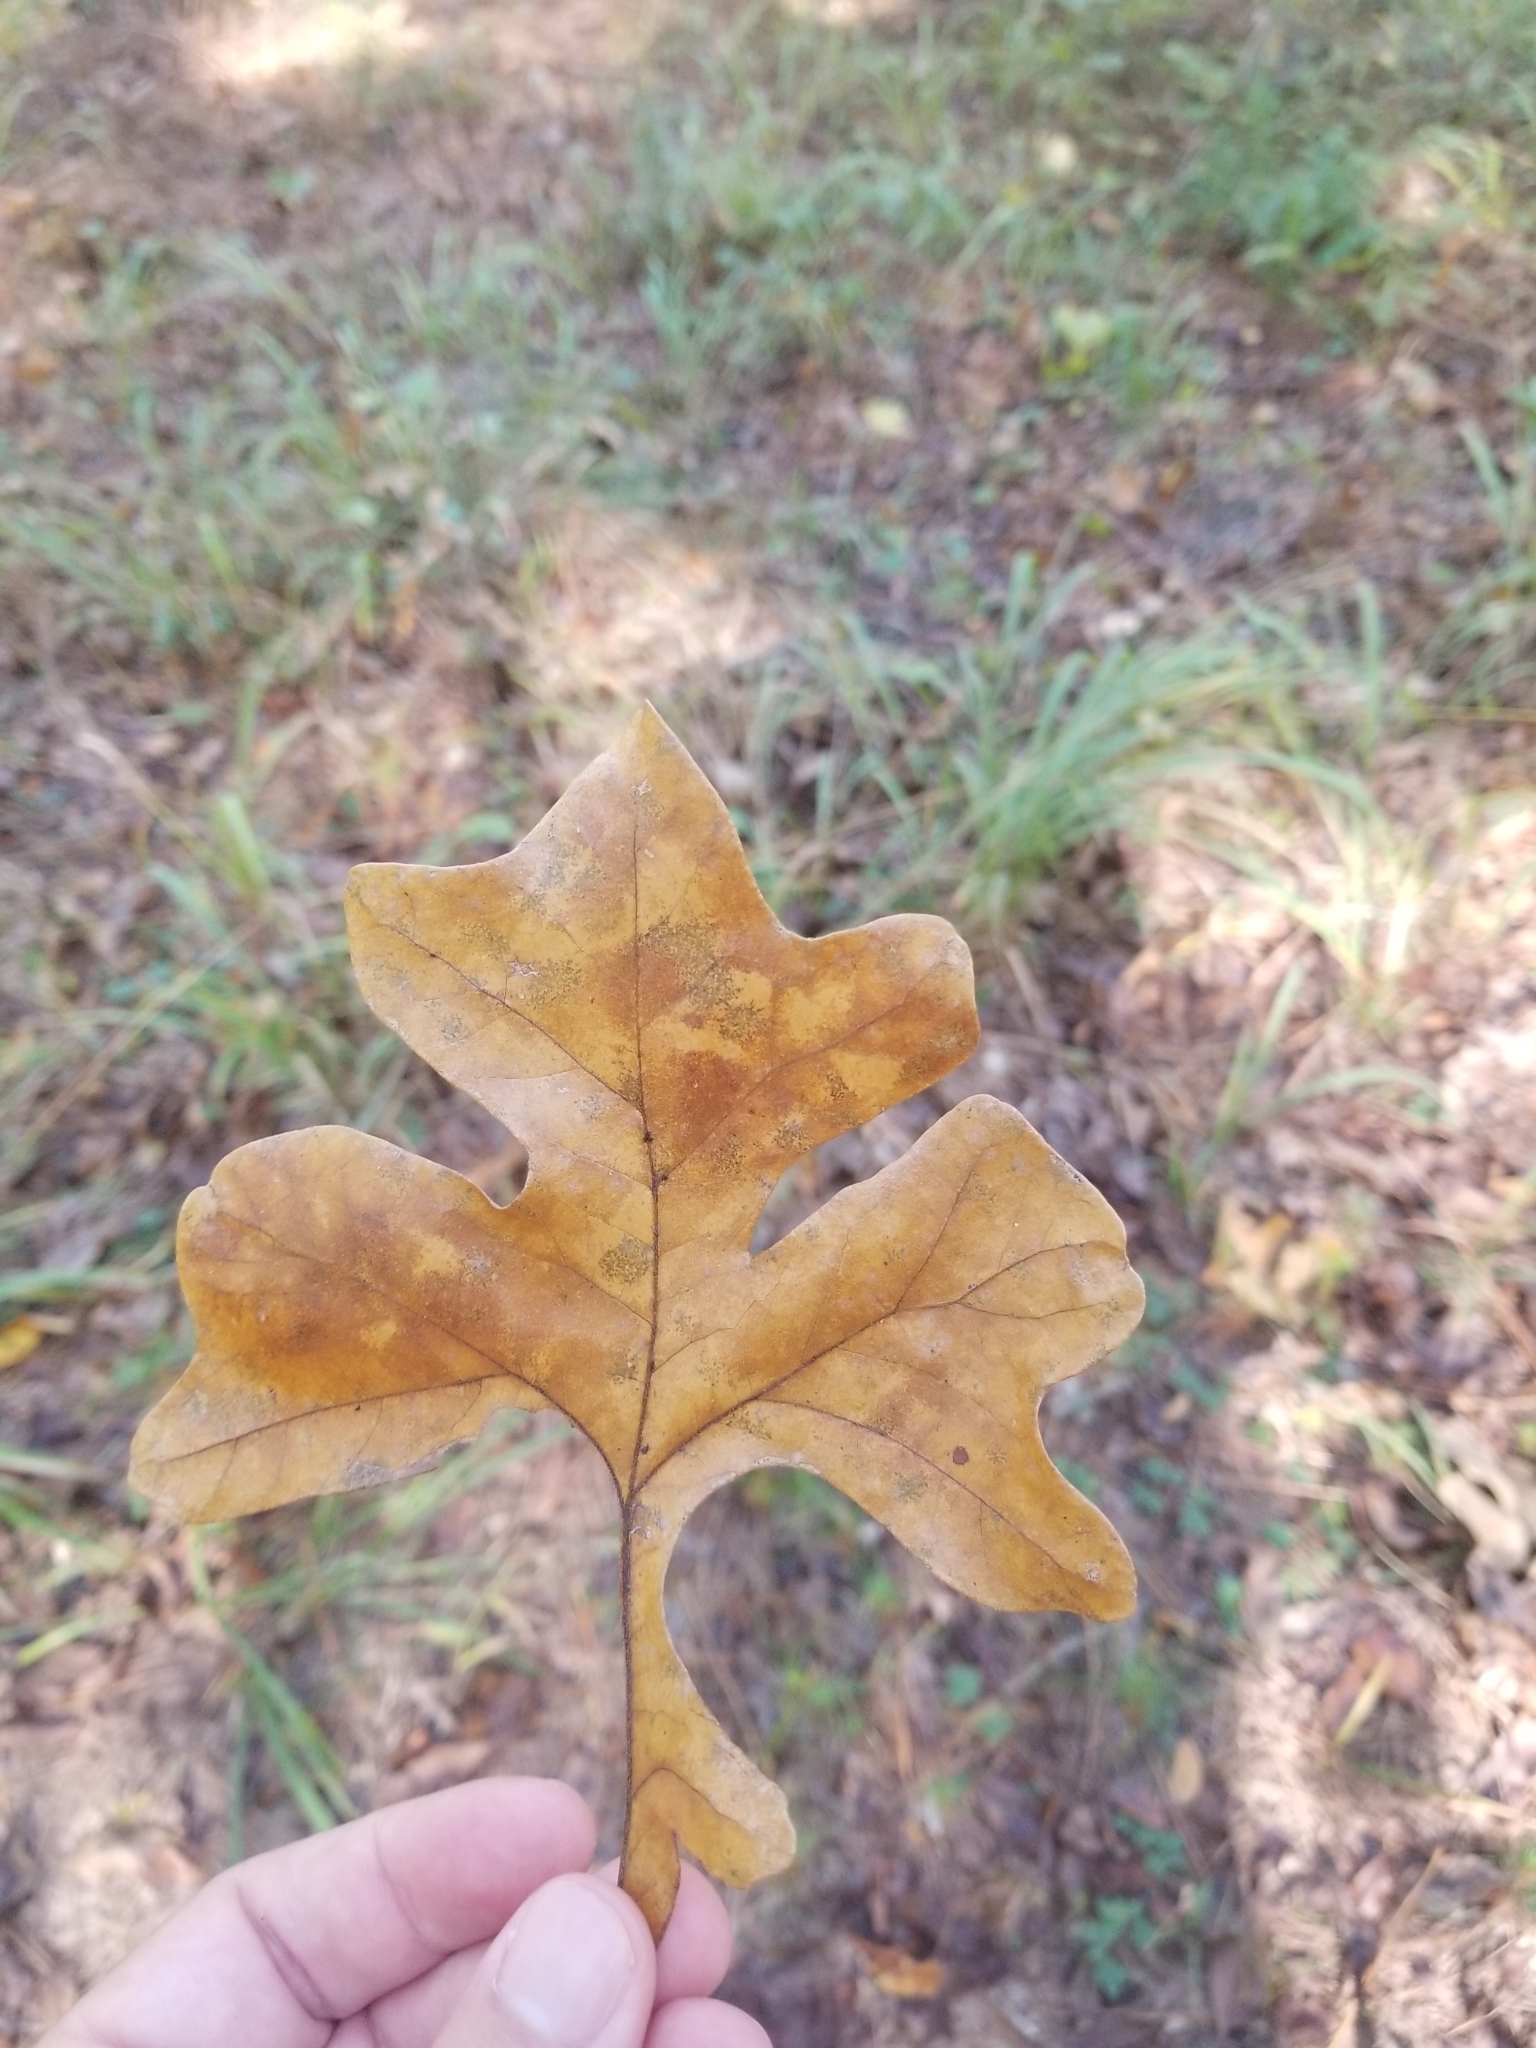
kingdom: Plantae
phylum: Tracheophyta
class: Magnoliopsida
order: Fagales
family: Fagaceae
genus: Quercus
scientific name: Quercus stellata
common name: Post oak
